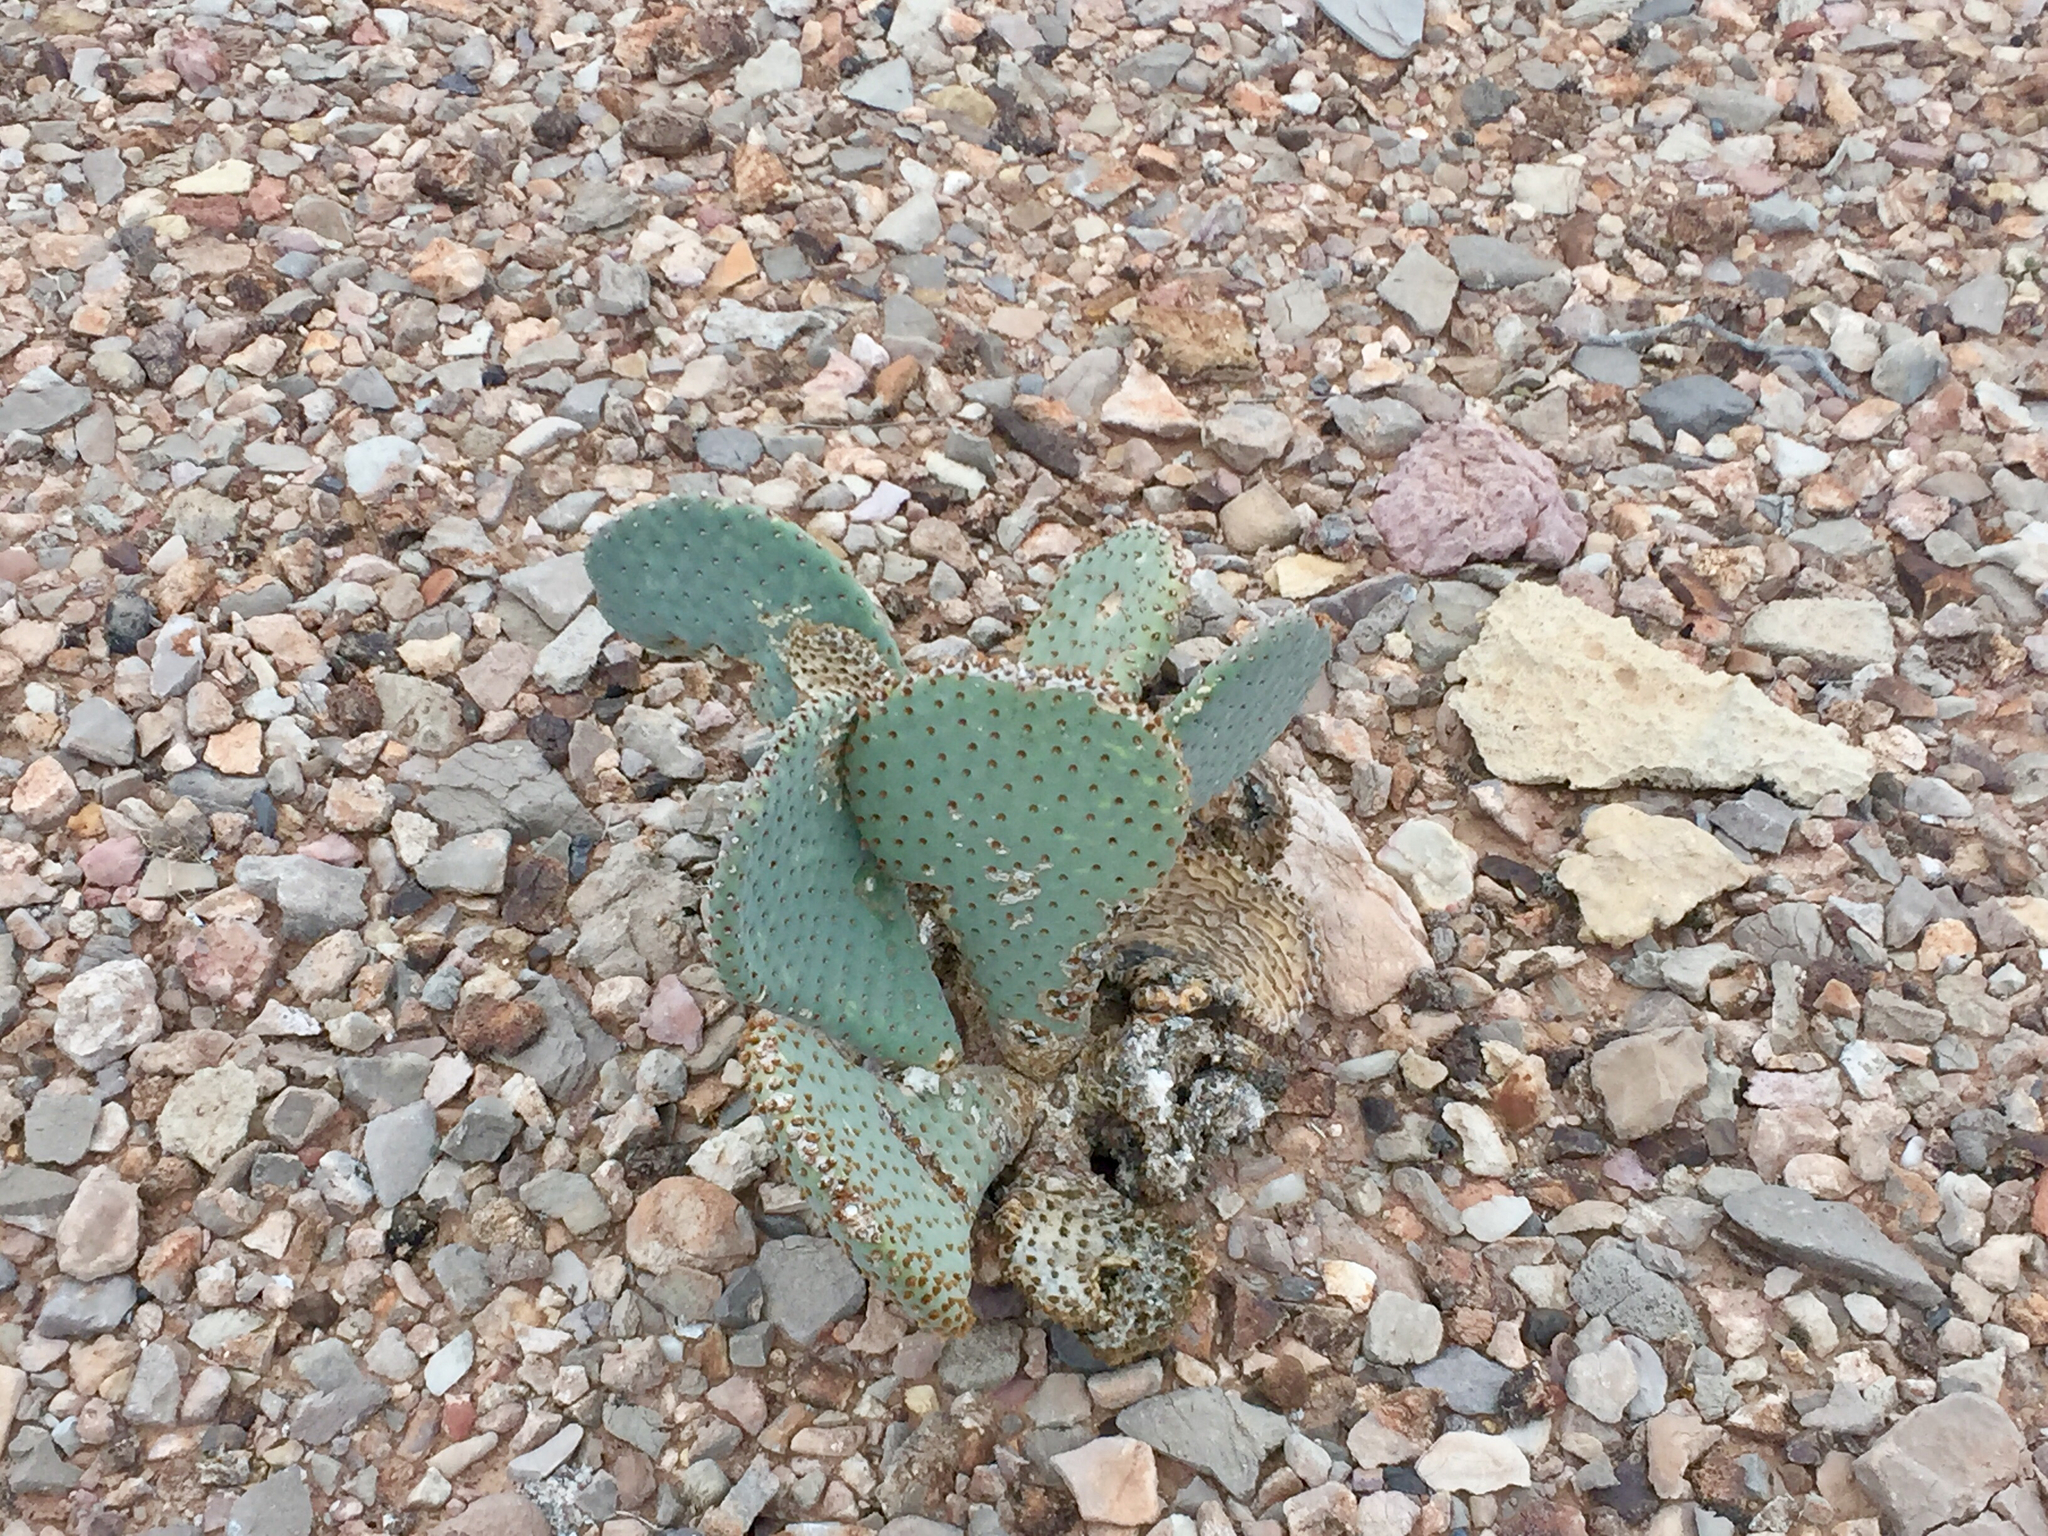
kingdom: Plantae
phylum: Tracheophyta
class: Magnoliopsida
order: Caryophyllales
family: Cactaceae
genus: Opuntia
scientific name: Opuntia basilaris
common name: Beavertail prickly-pear
